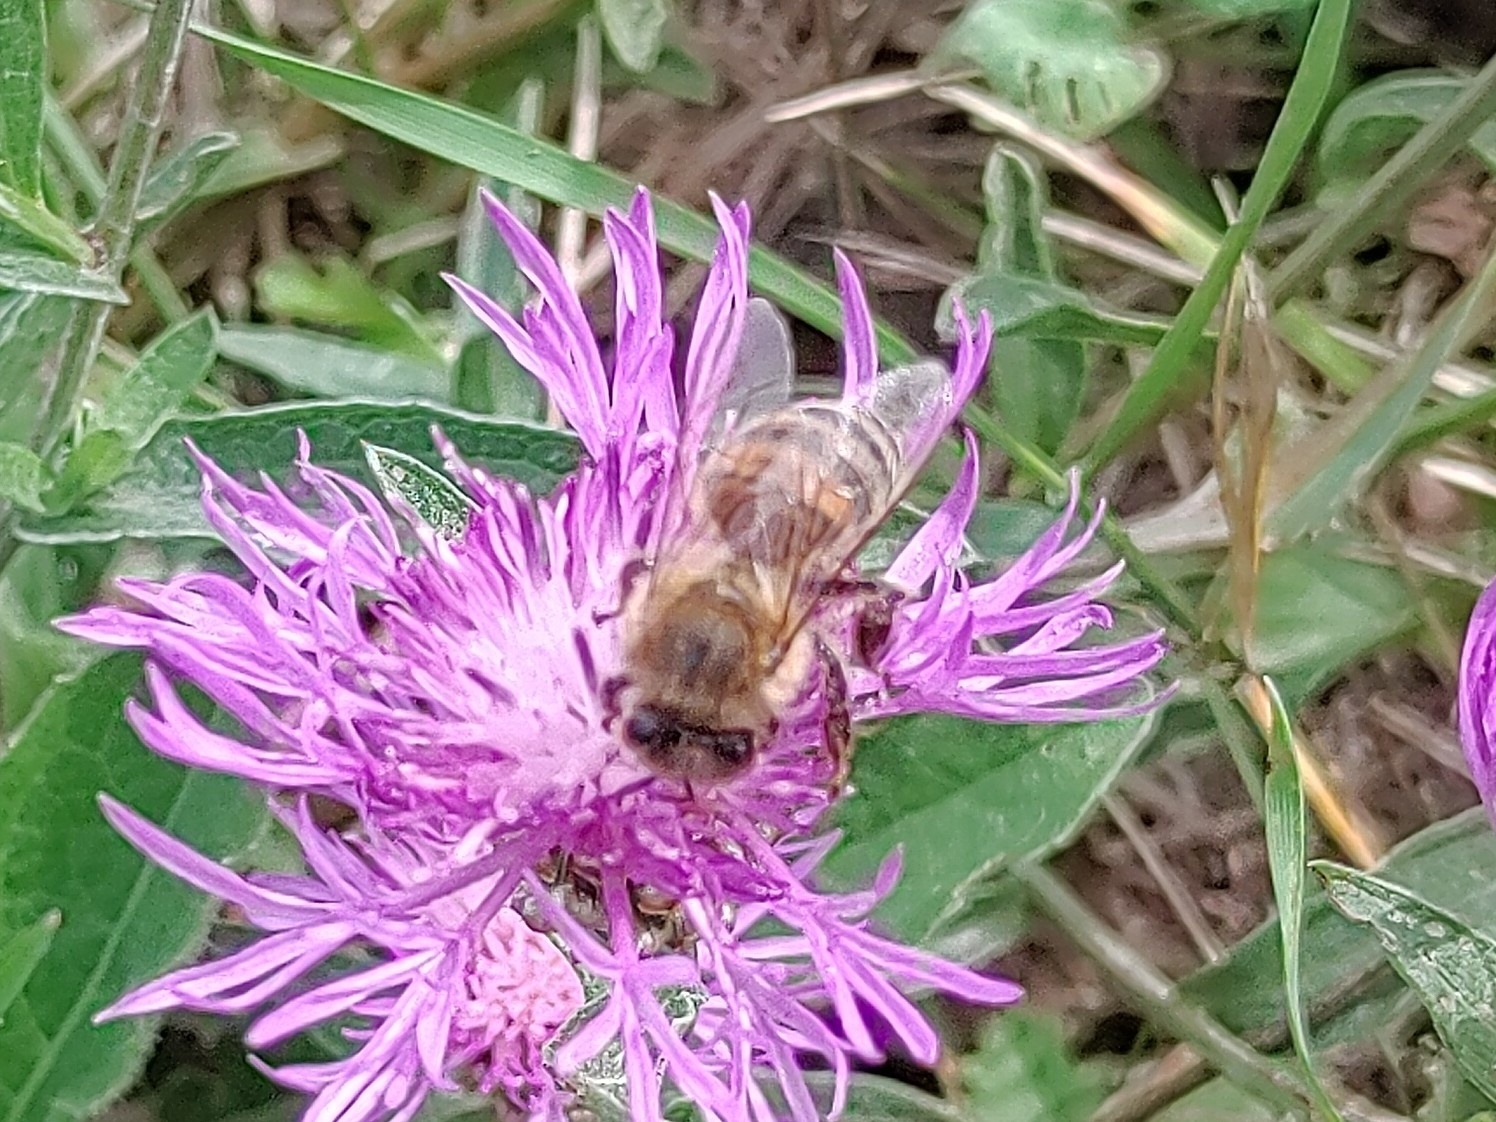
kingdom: Animalia
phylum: Arthropoda
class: Insecta
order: Hymenoptera
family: Apidae
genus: Apis
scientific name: Apis mellifera
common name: Honey bee
